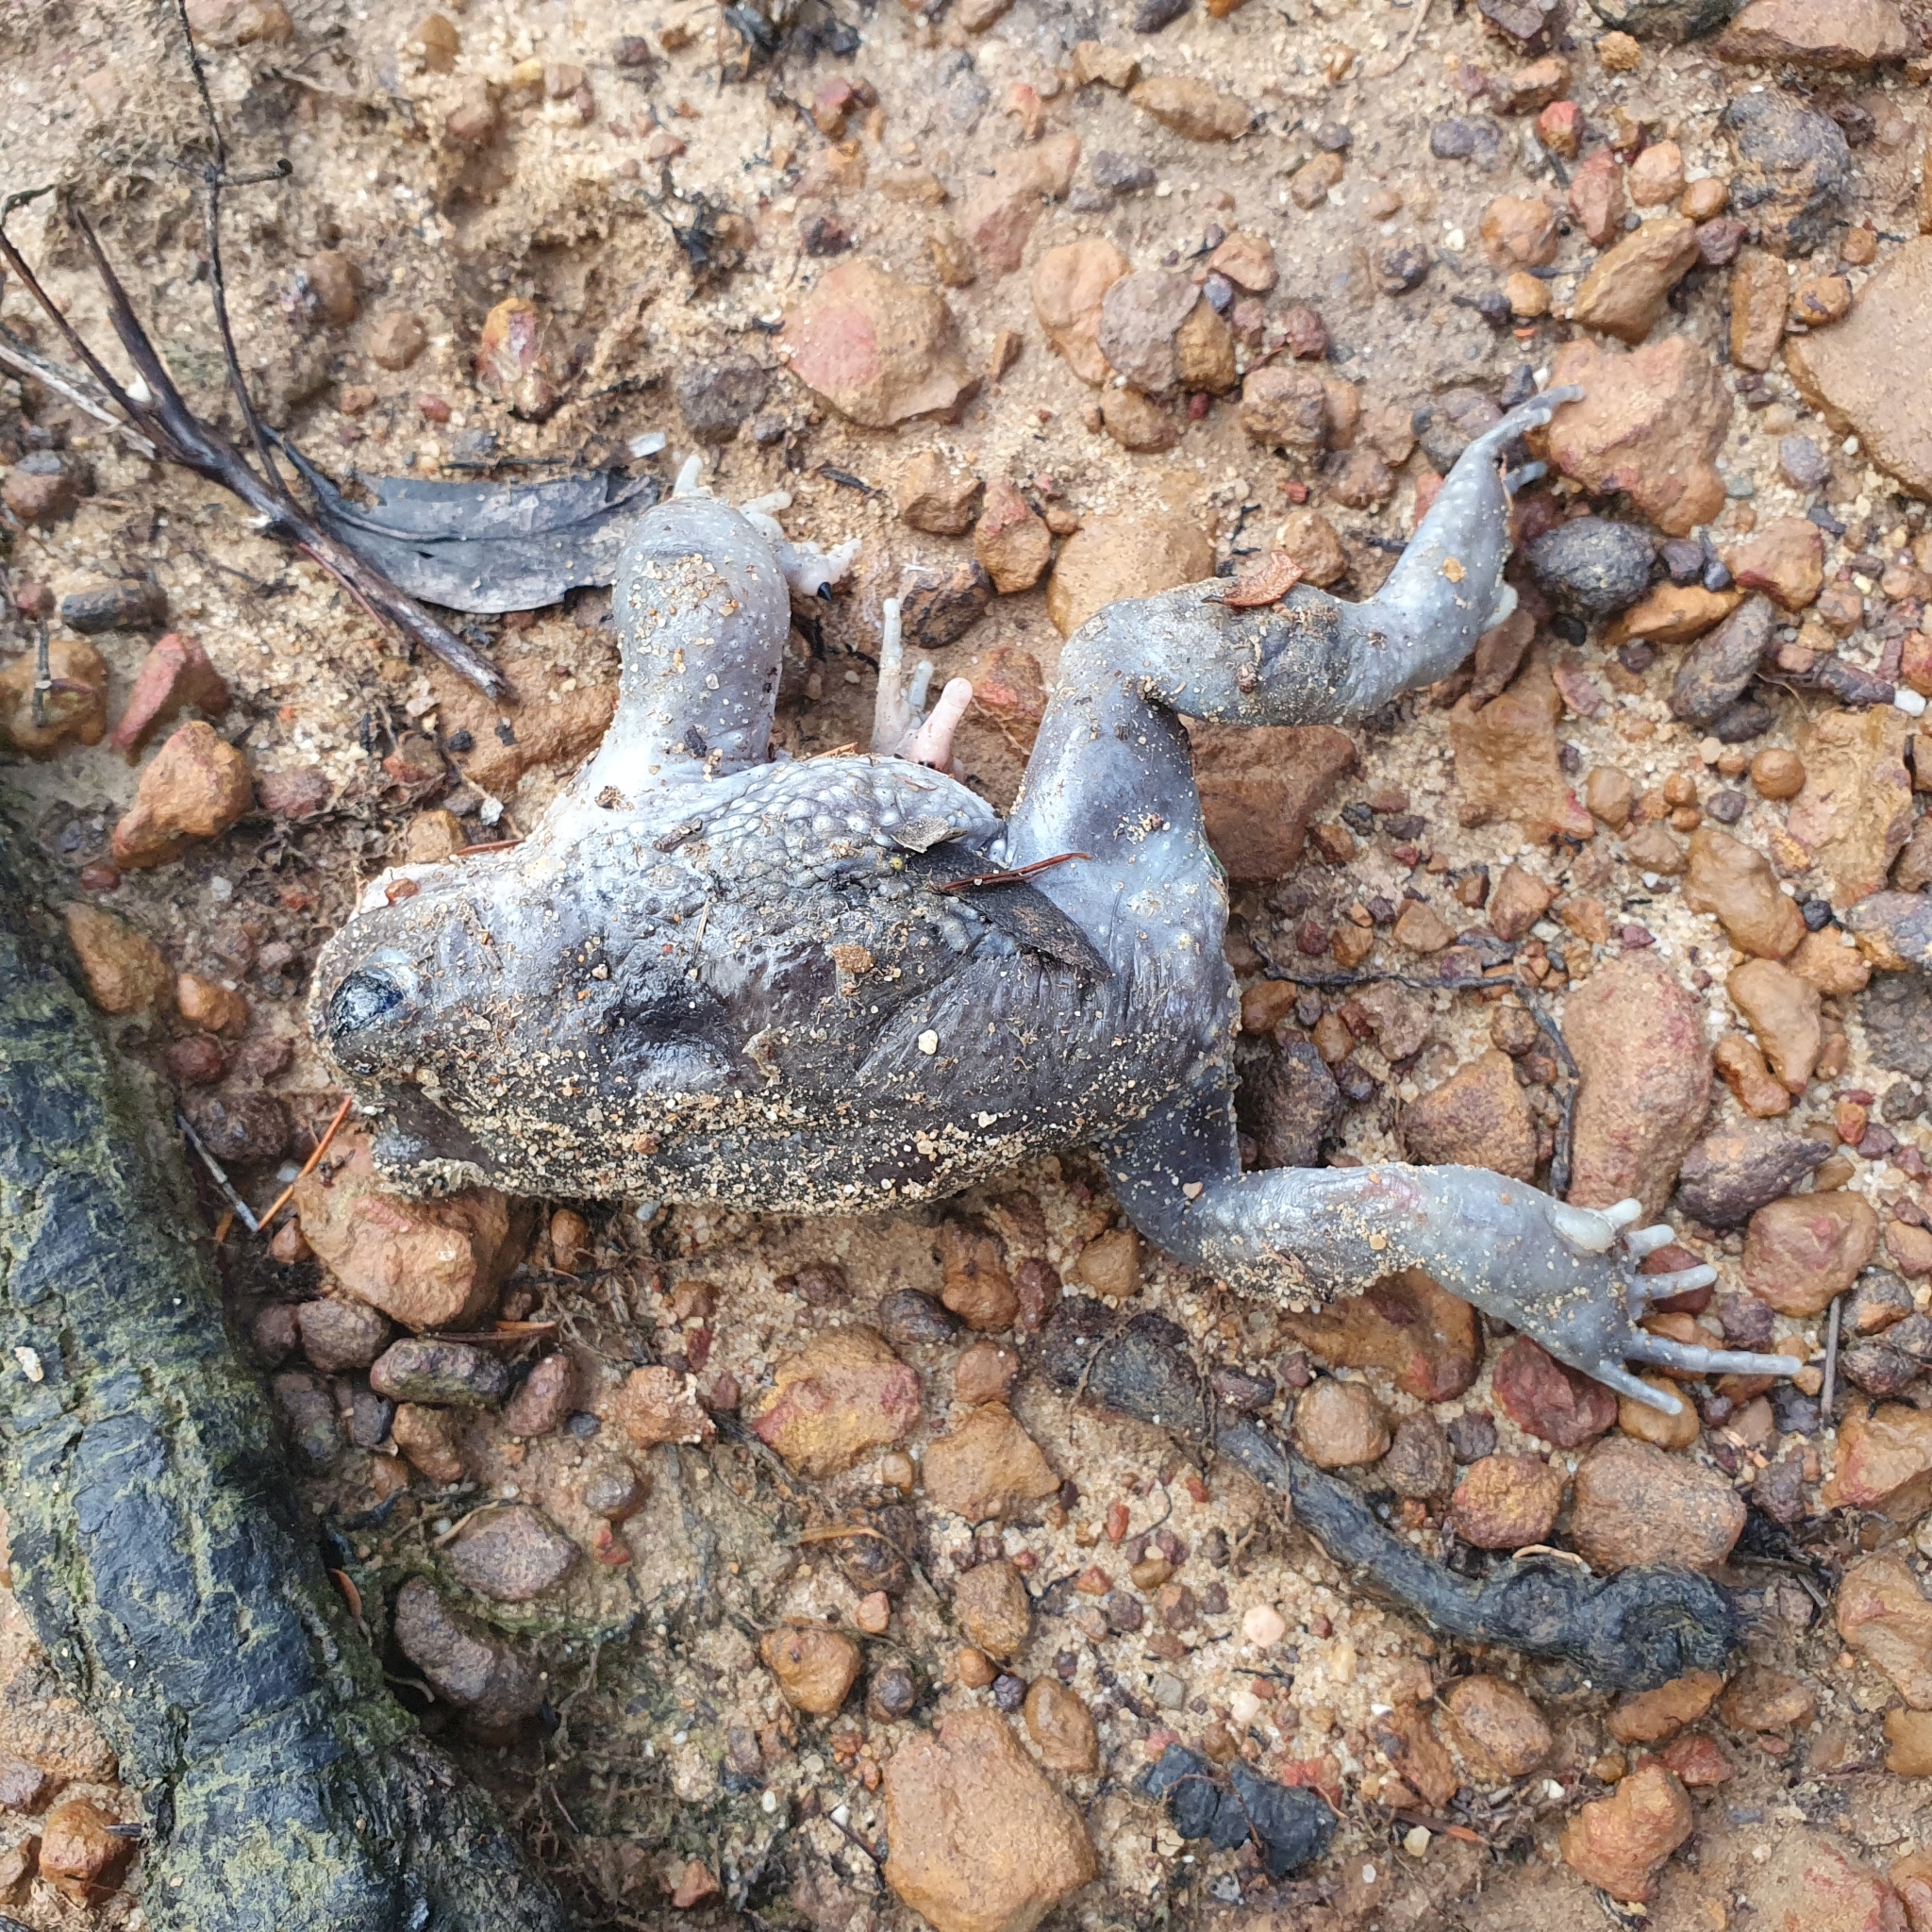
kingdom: Animalia
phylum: Chordata
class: Amphibia
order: Anura
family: Limnodynastidae
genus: Heleioporus
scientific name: Heleioporus australiacus
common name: Eastern owl frog
